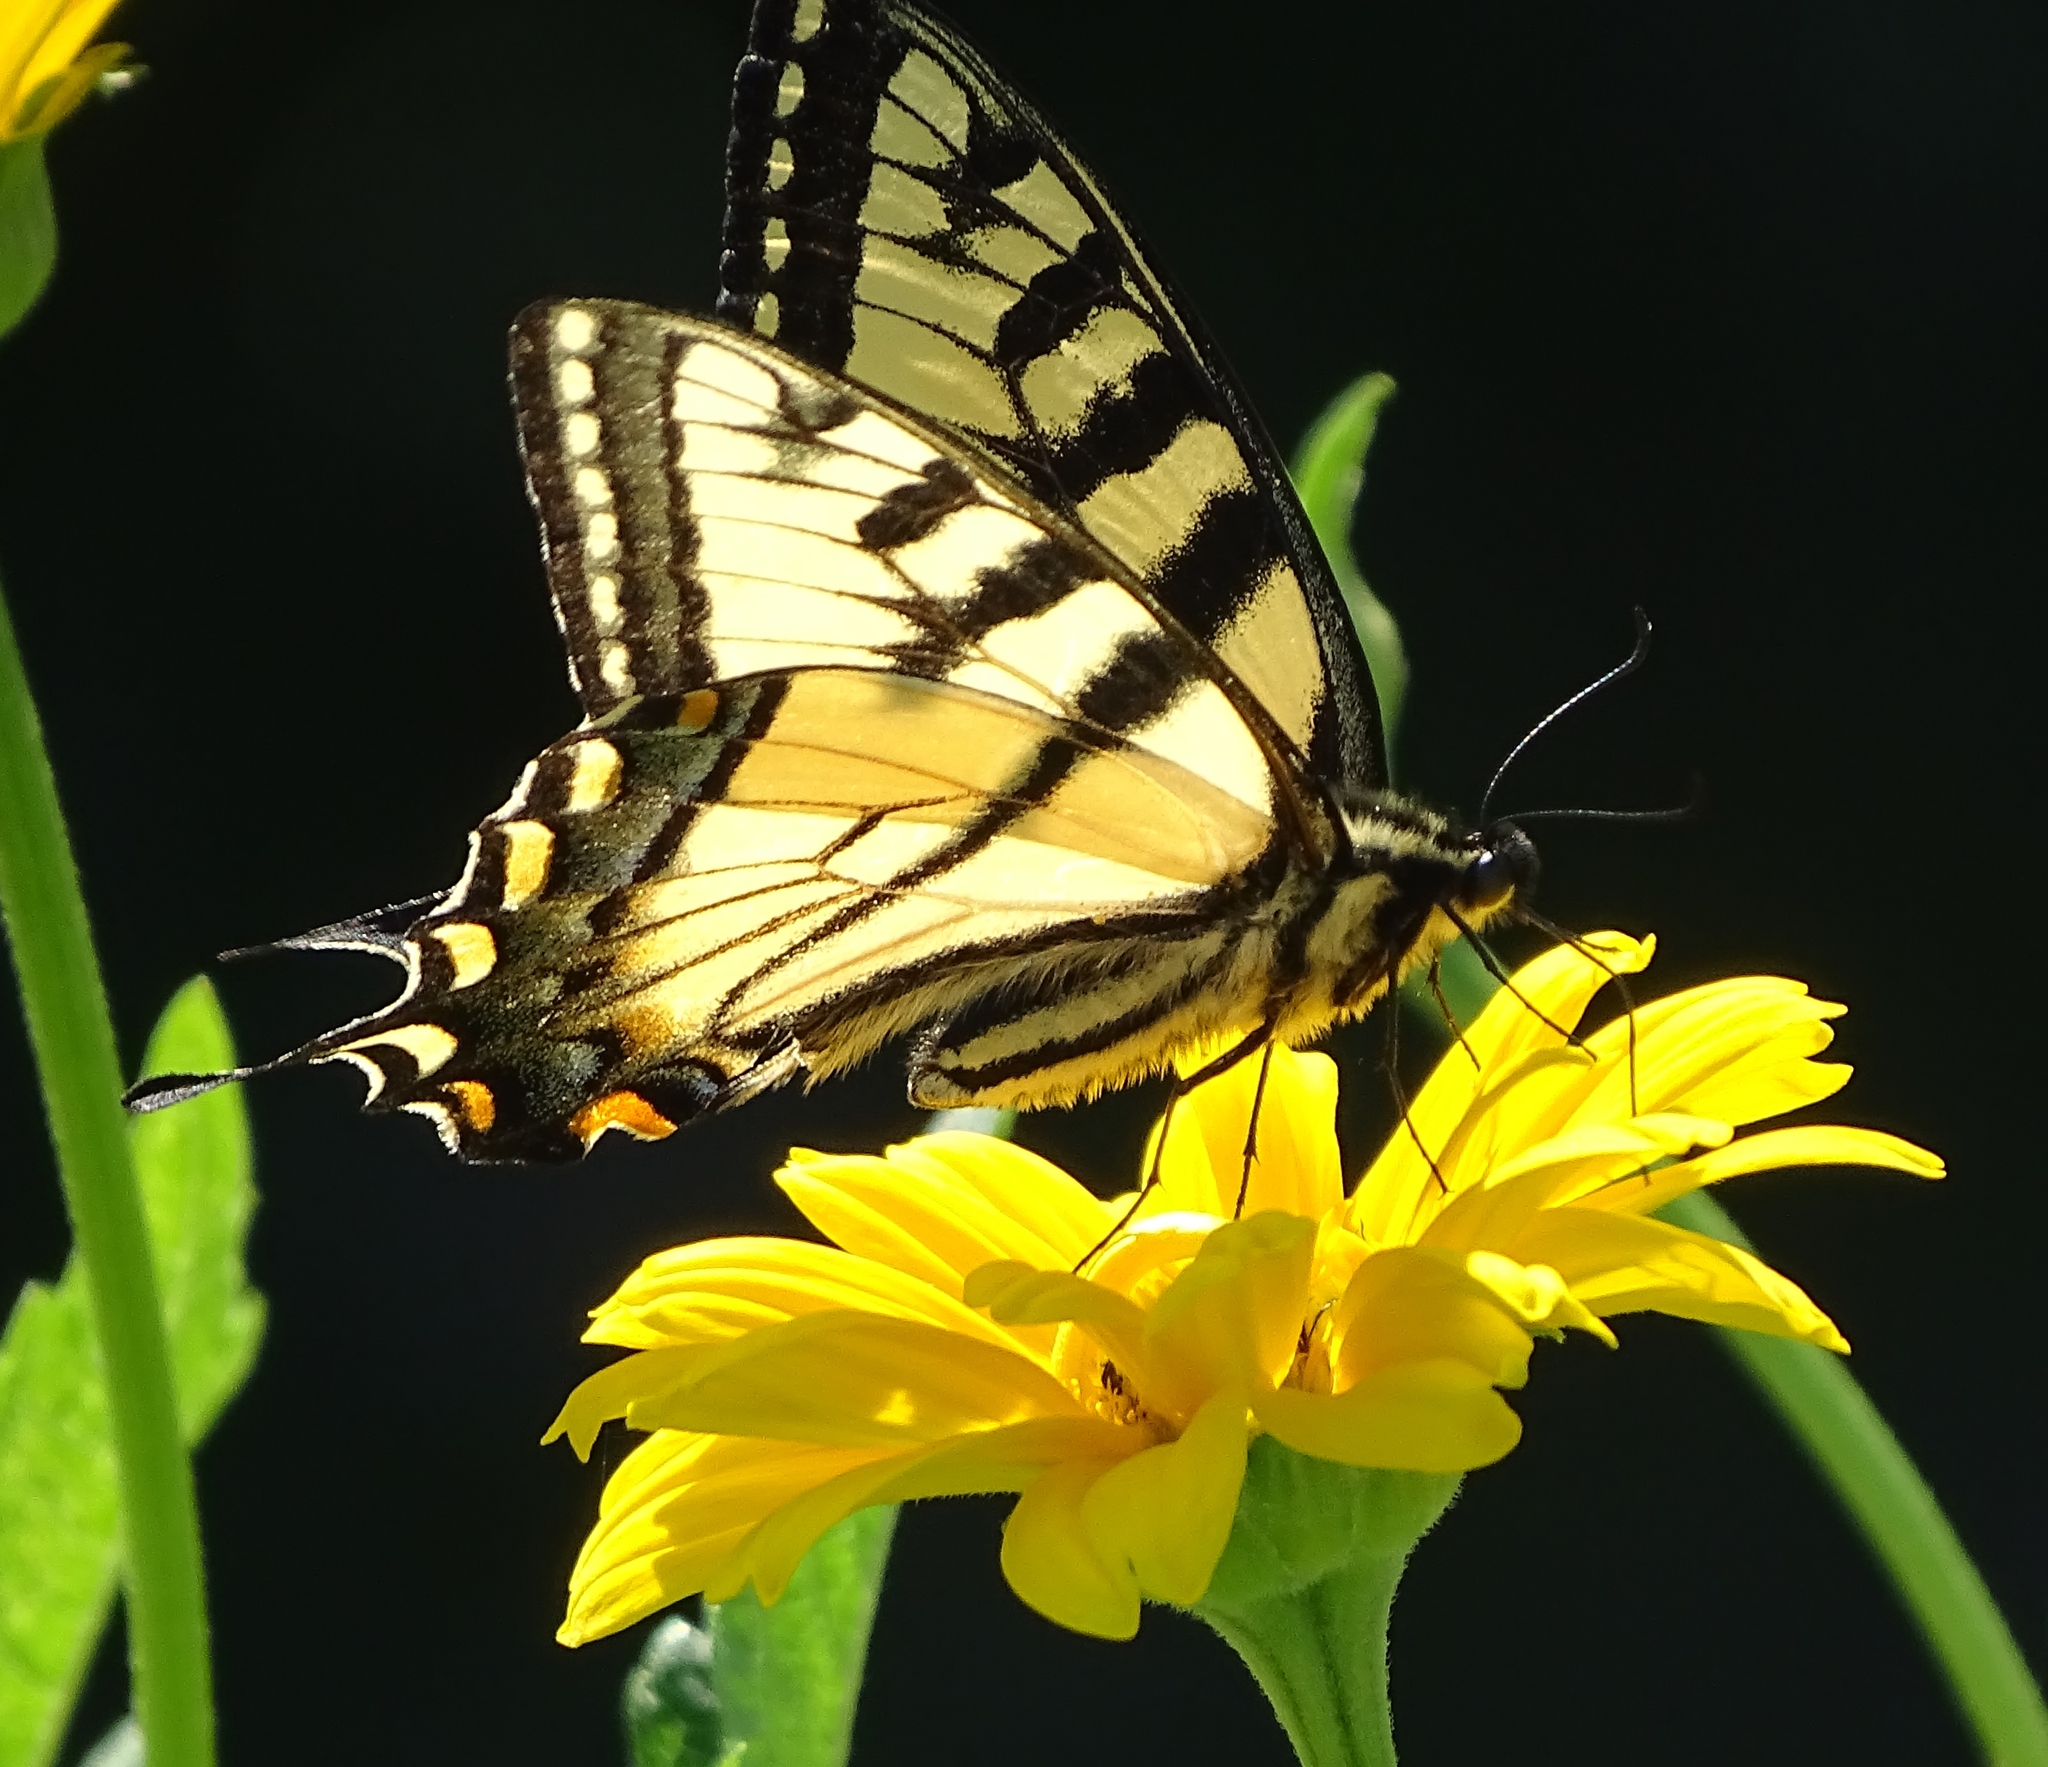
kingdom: Animalia
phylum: Arthropoda
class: Insecta
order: Lepidoptera
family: Papilionidae
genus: Papilio
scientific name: Papilio canadensis
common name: Canadian tiger swallowtail
